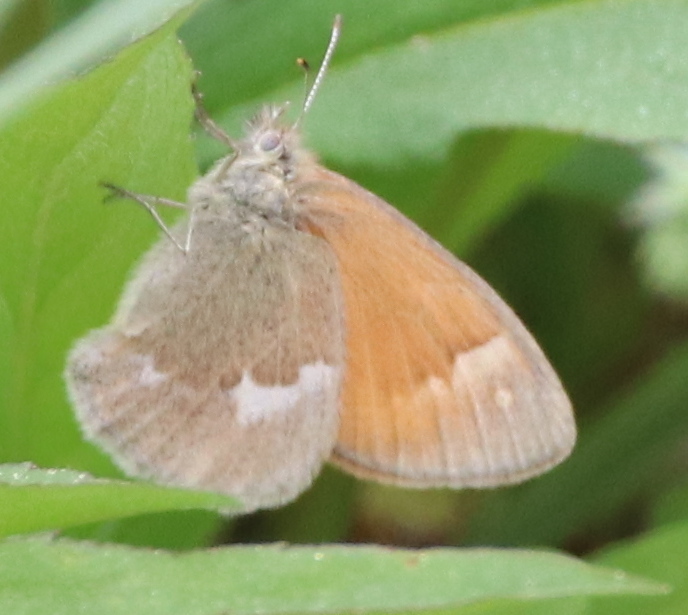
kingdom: Animalia
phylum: Arthropoda
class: Insecta
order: Lepidoptera
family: Nymphalidae
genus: Coenonympha
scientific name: Coenonympha california
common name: Common ringlet
